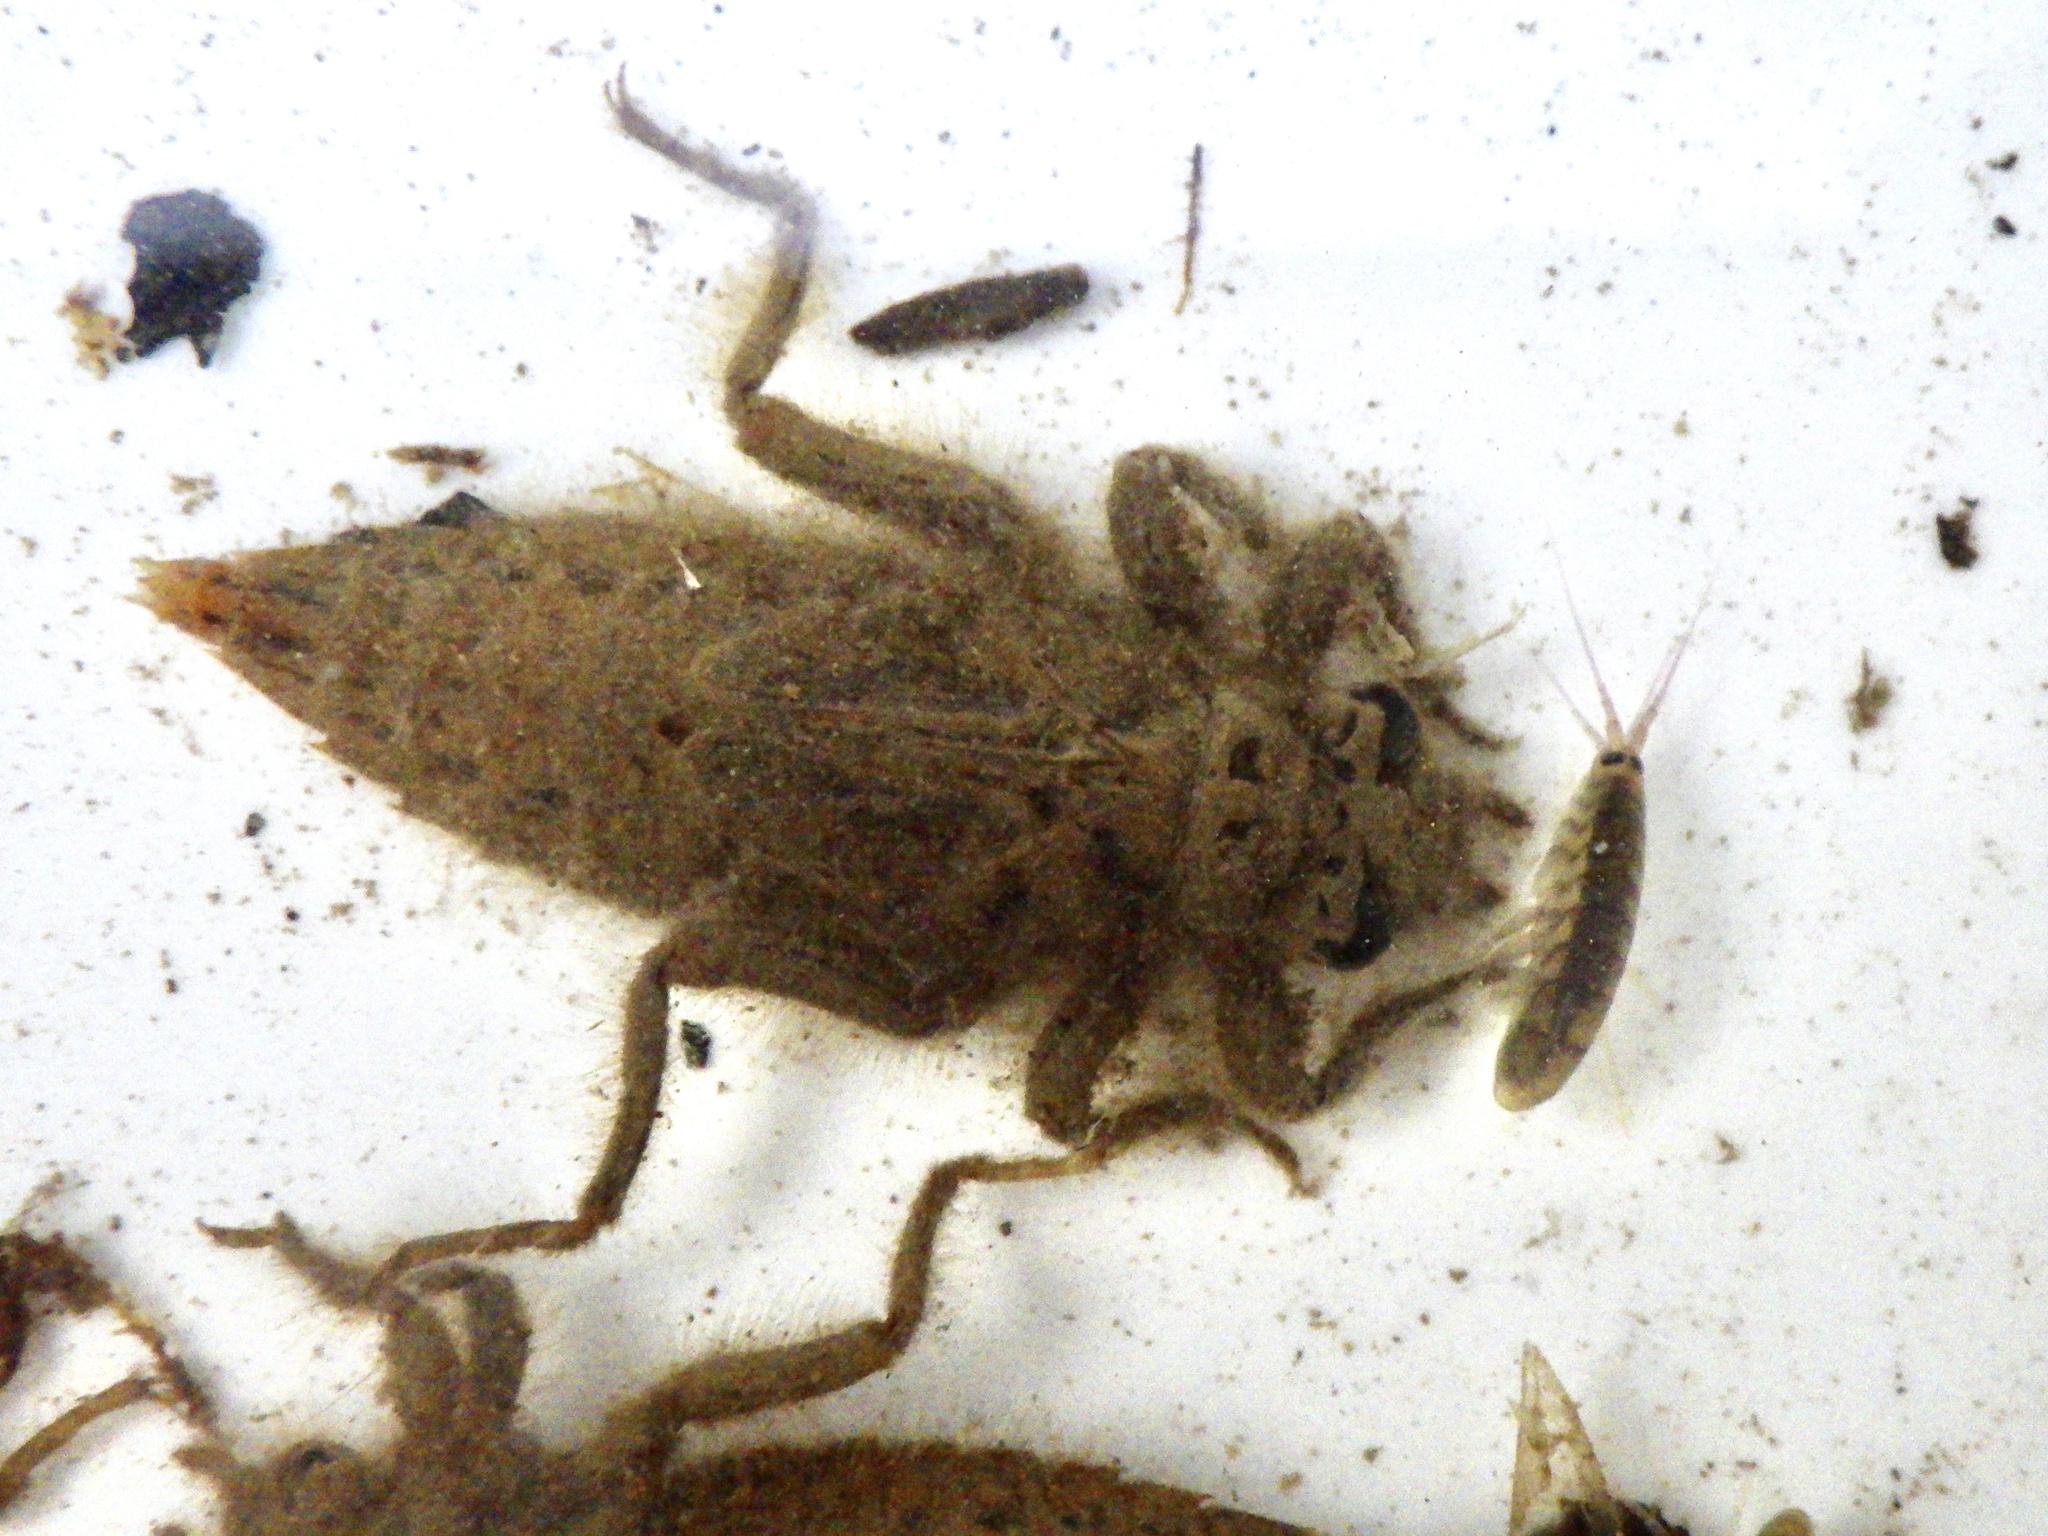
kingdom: Animalia
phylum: Arthropoda
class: Insecta
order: Odonata
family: Gomphidae
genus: Asiagomphus
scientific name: Asiagomphus melaenops
